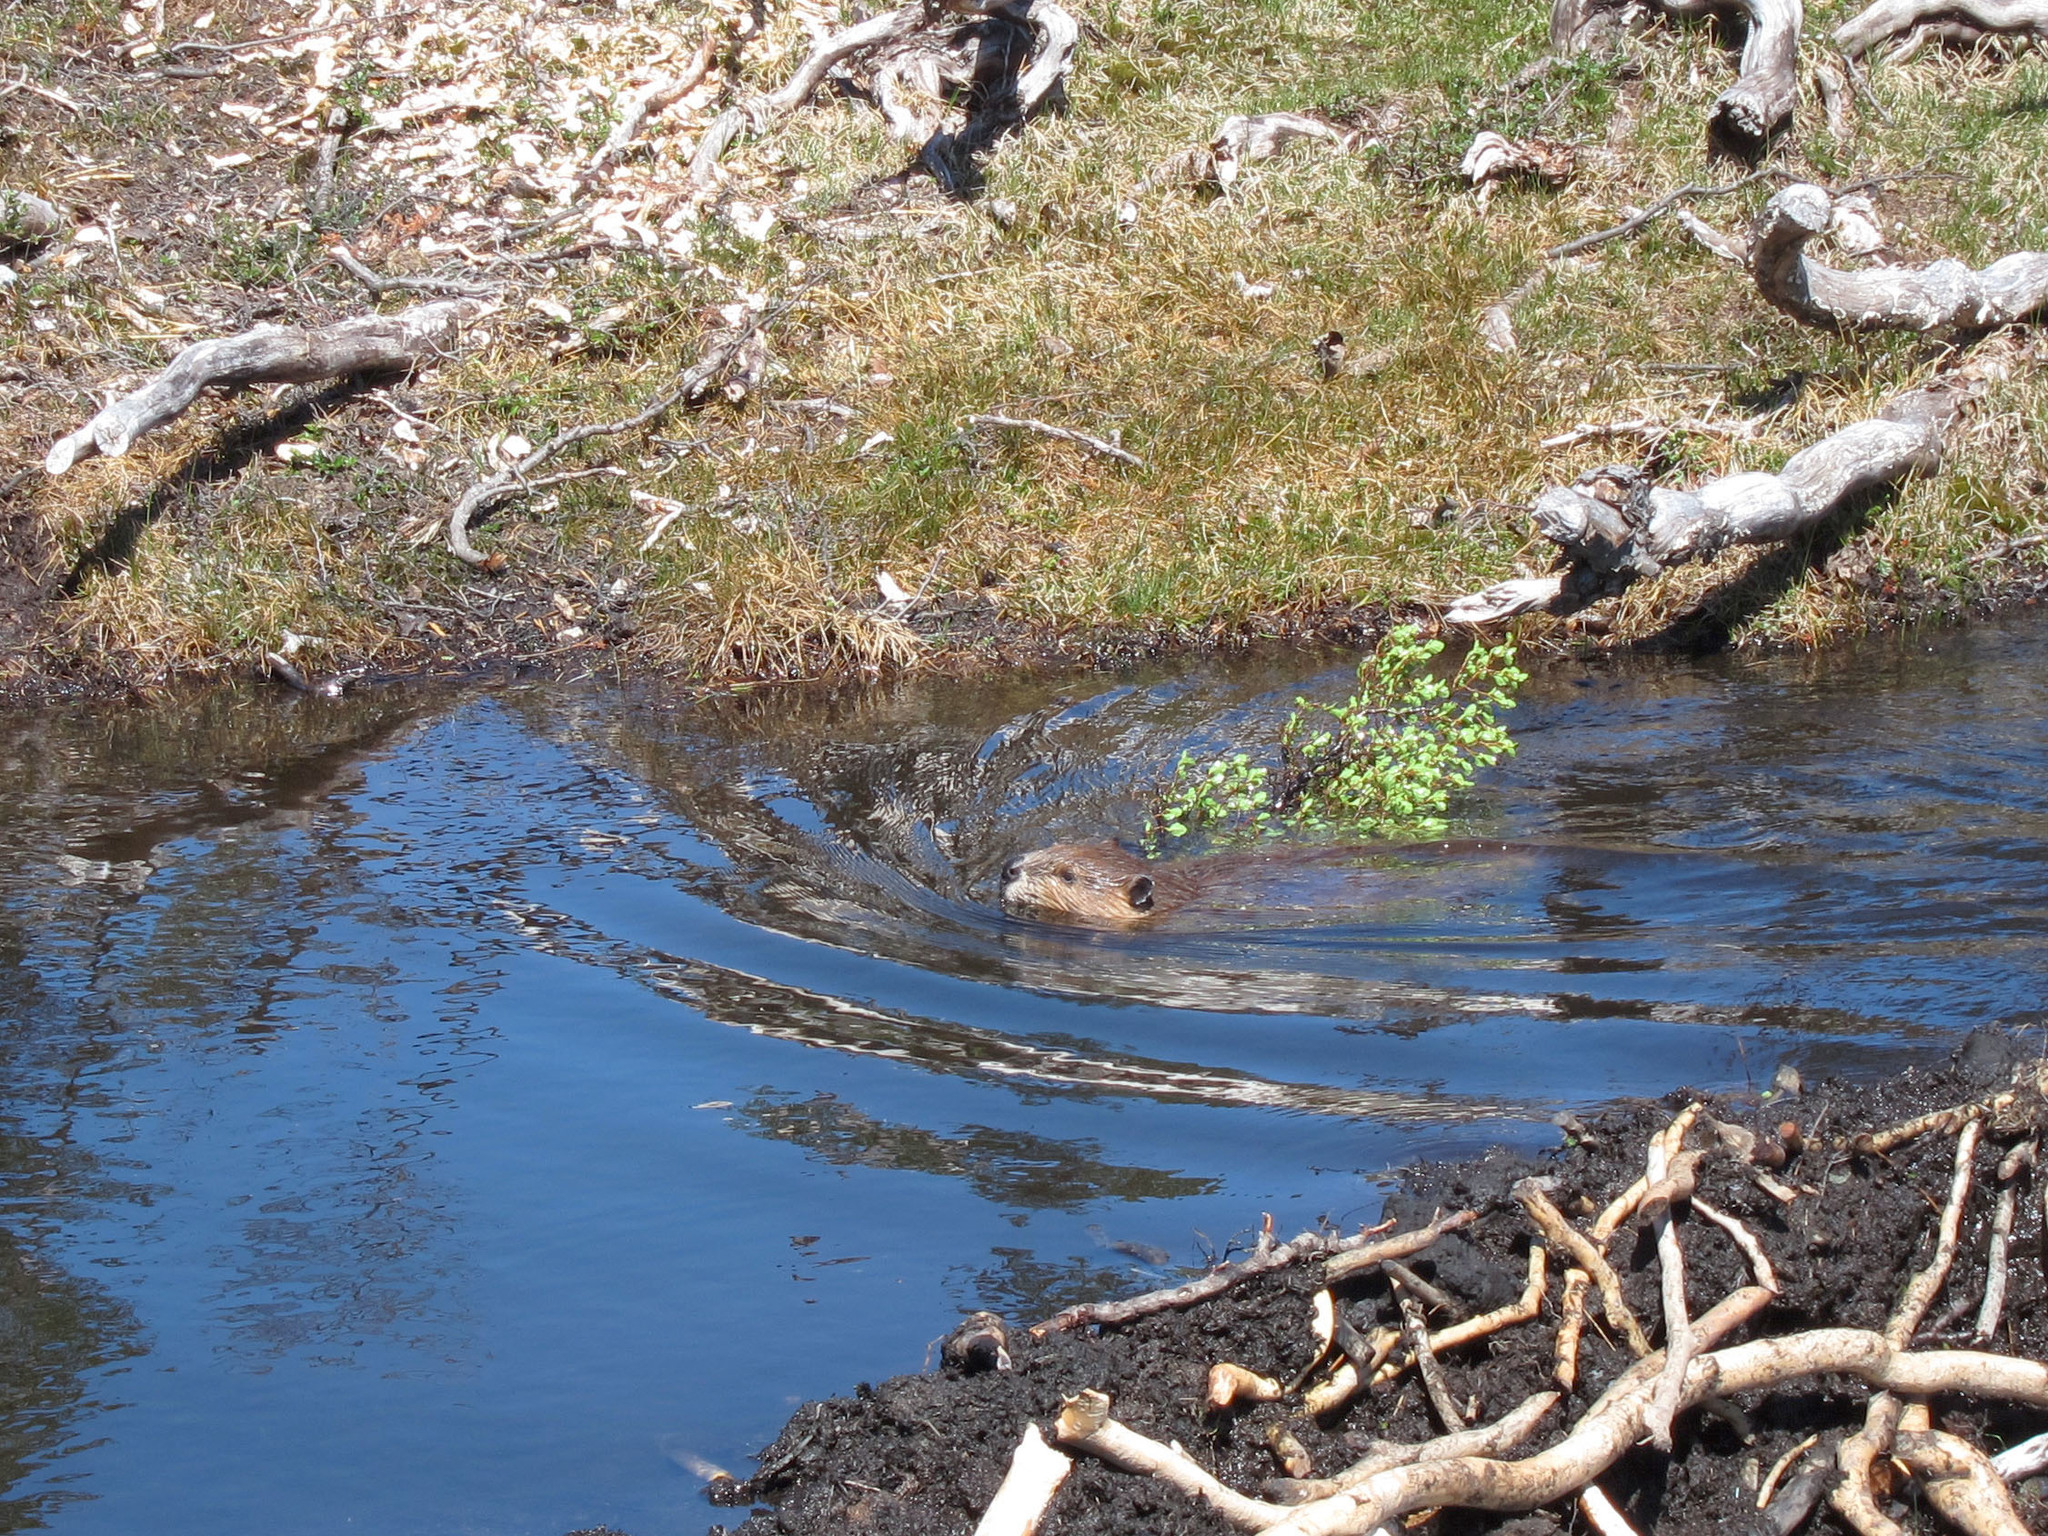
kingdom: Animalia
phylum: Chordata
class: Mammalia
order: Rodentia
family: Castoridae
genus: Castor
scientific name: Castor canadensis
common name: American beaver
